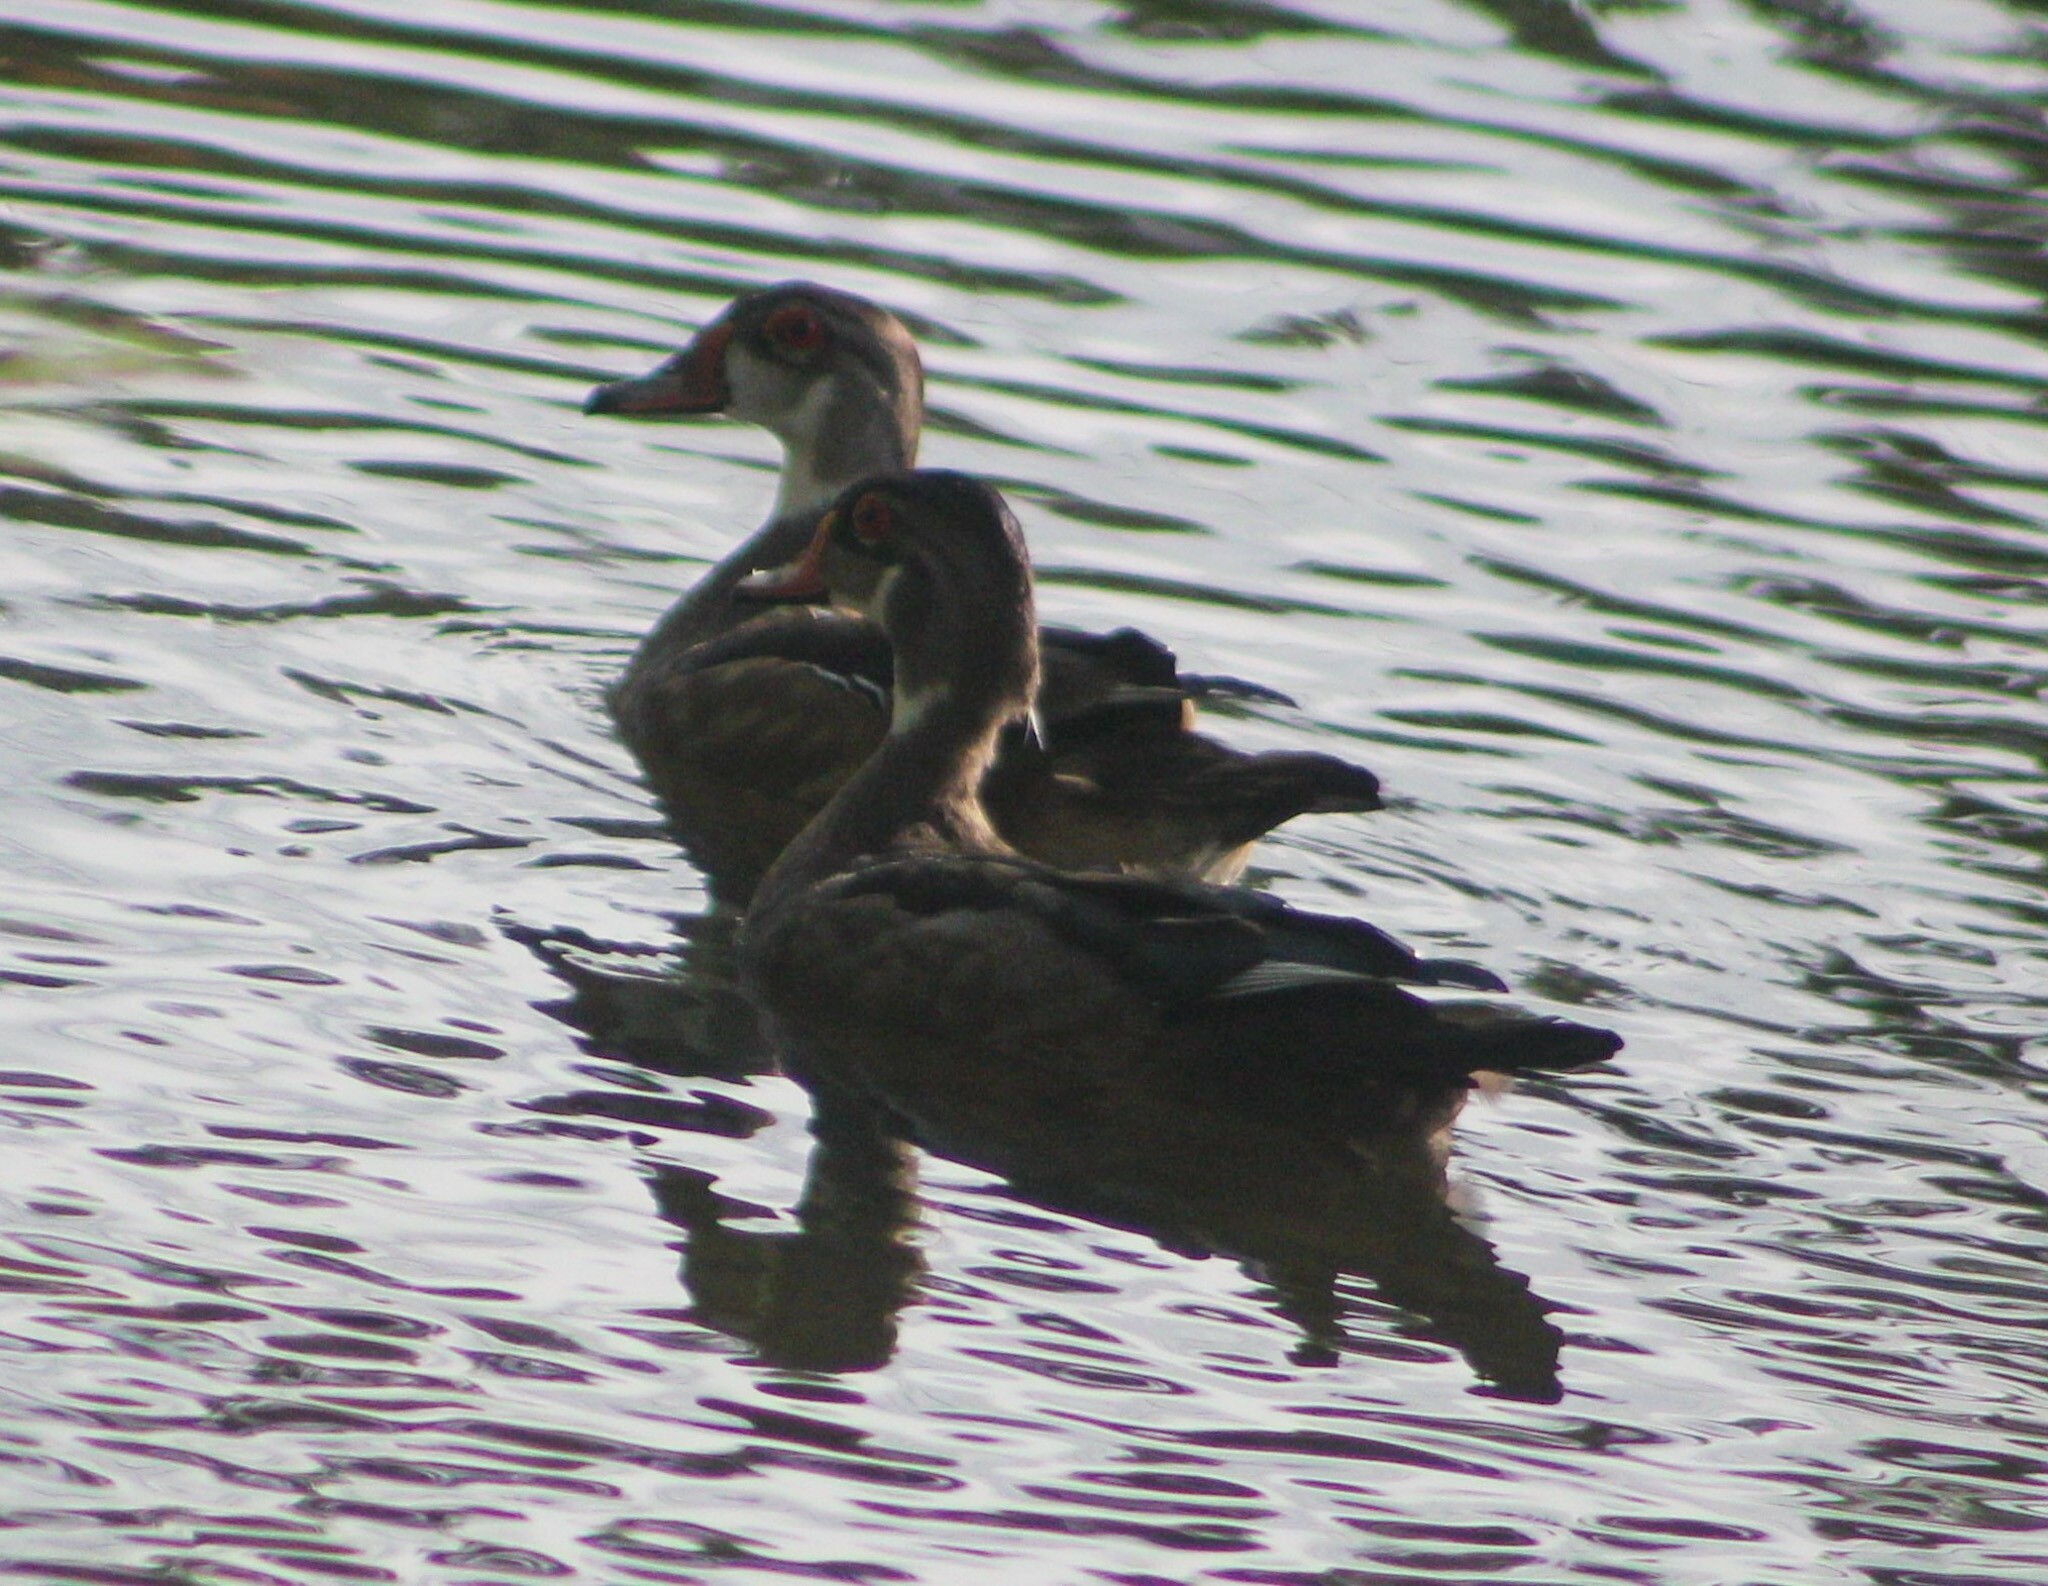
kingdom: Animalia
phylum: Chordata
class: Aves
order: Anseriformes
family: Anatidae
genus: Aix
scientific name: Aix sponsa
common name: Wood duck
